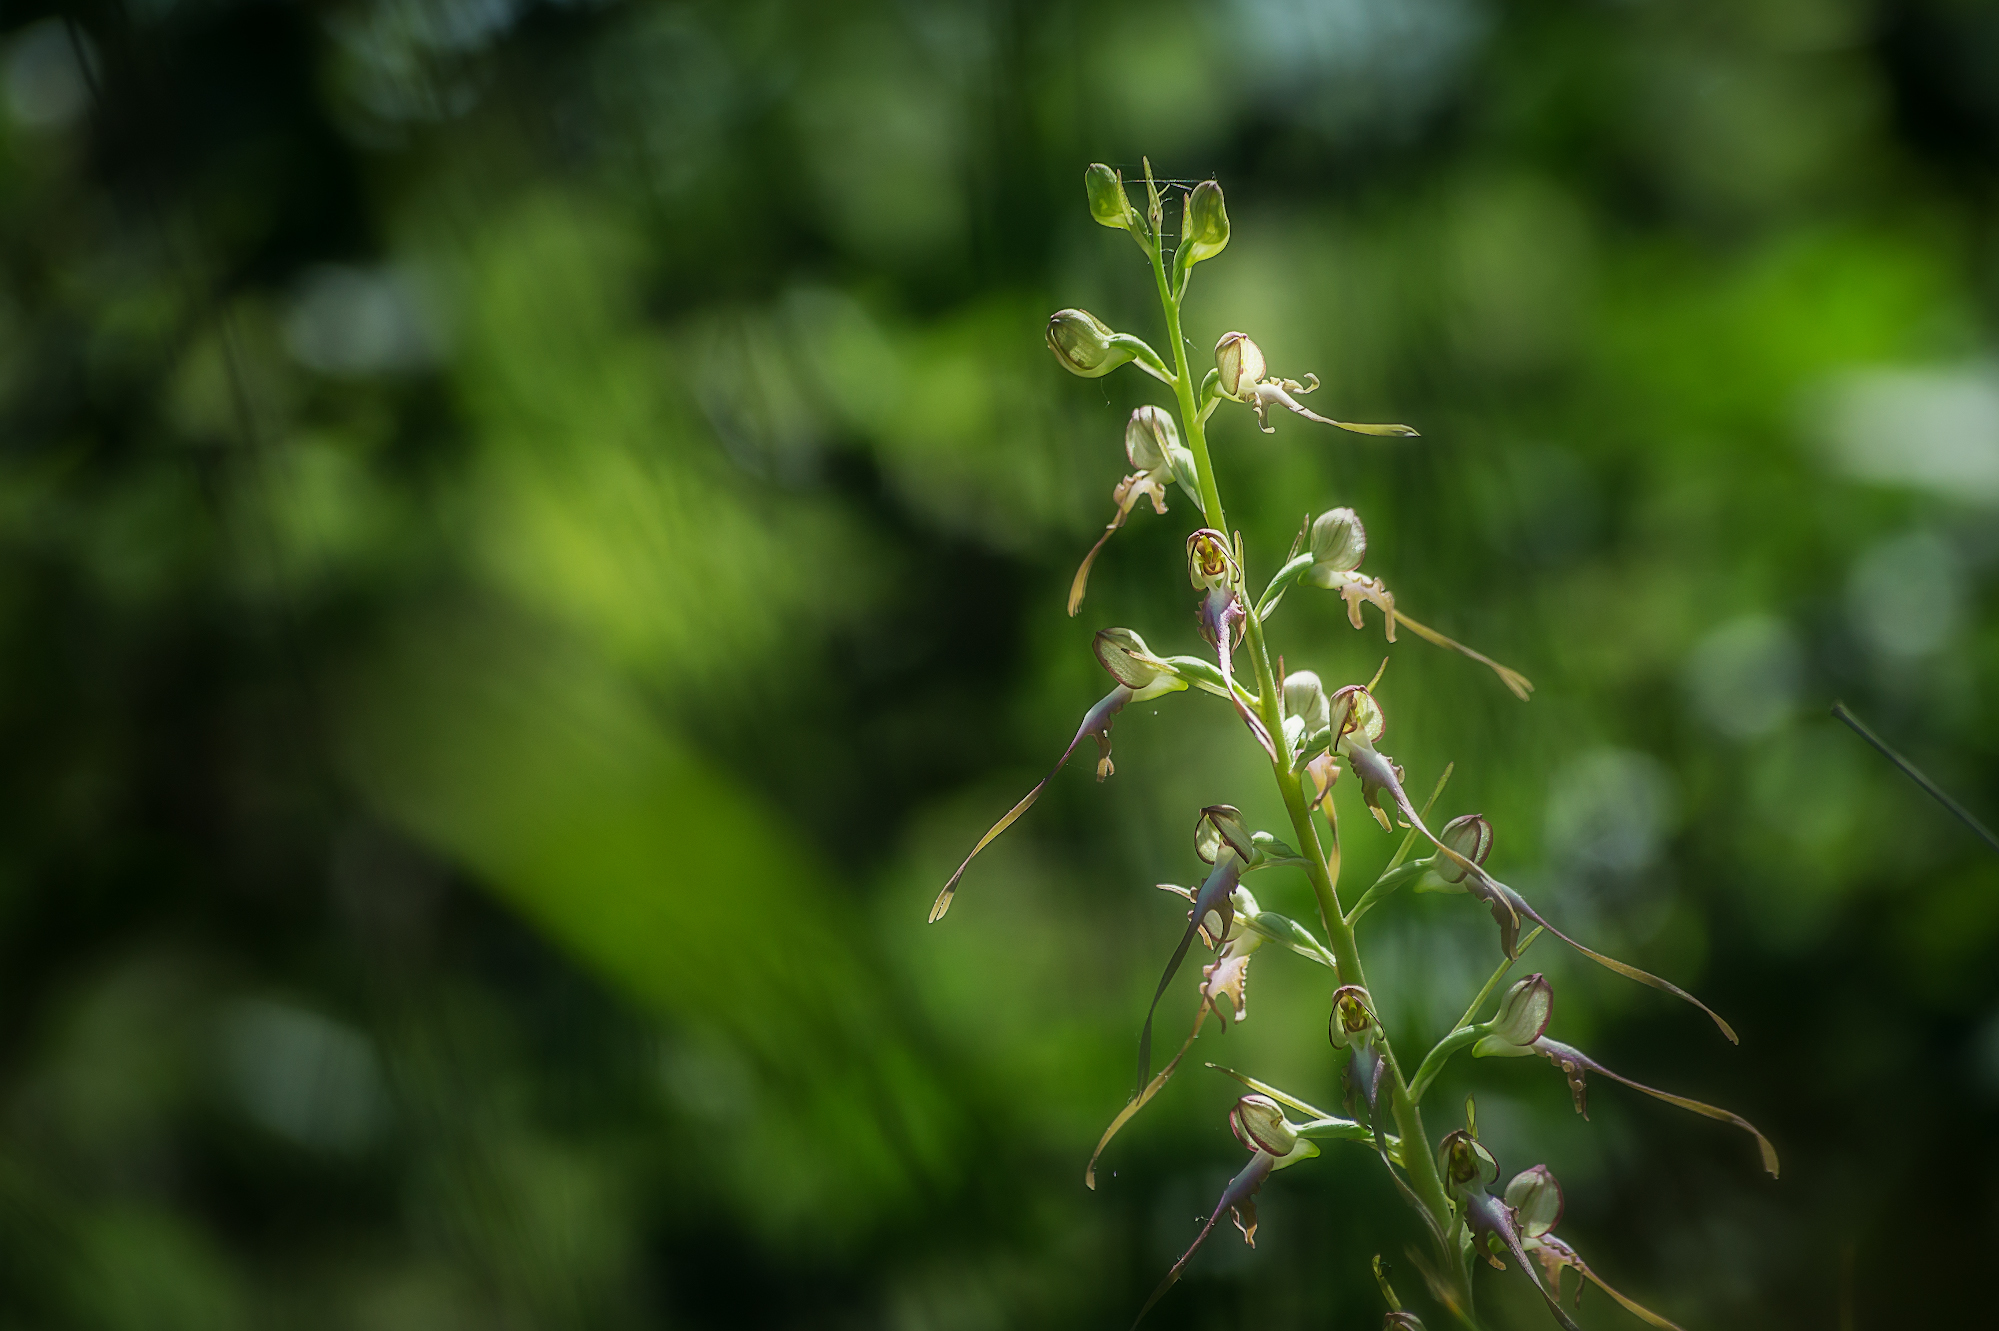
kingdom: Plantae
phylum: Tracheophyta
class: Liliopsida
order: Asparagales
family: Orchidaceae
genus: Himantoglossum
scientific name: Himantoglossum caprinum
